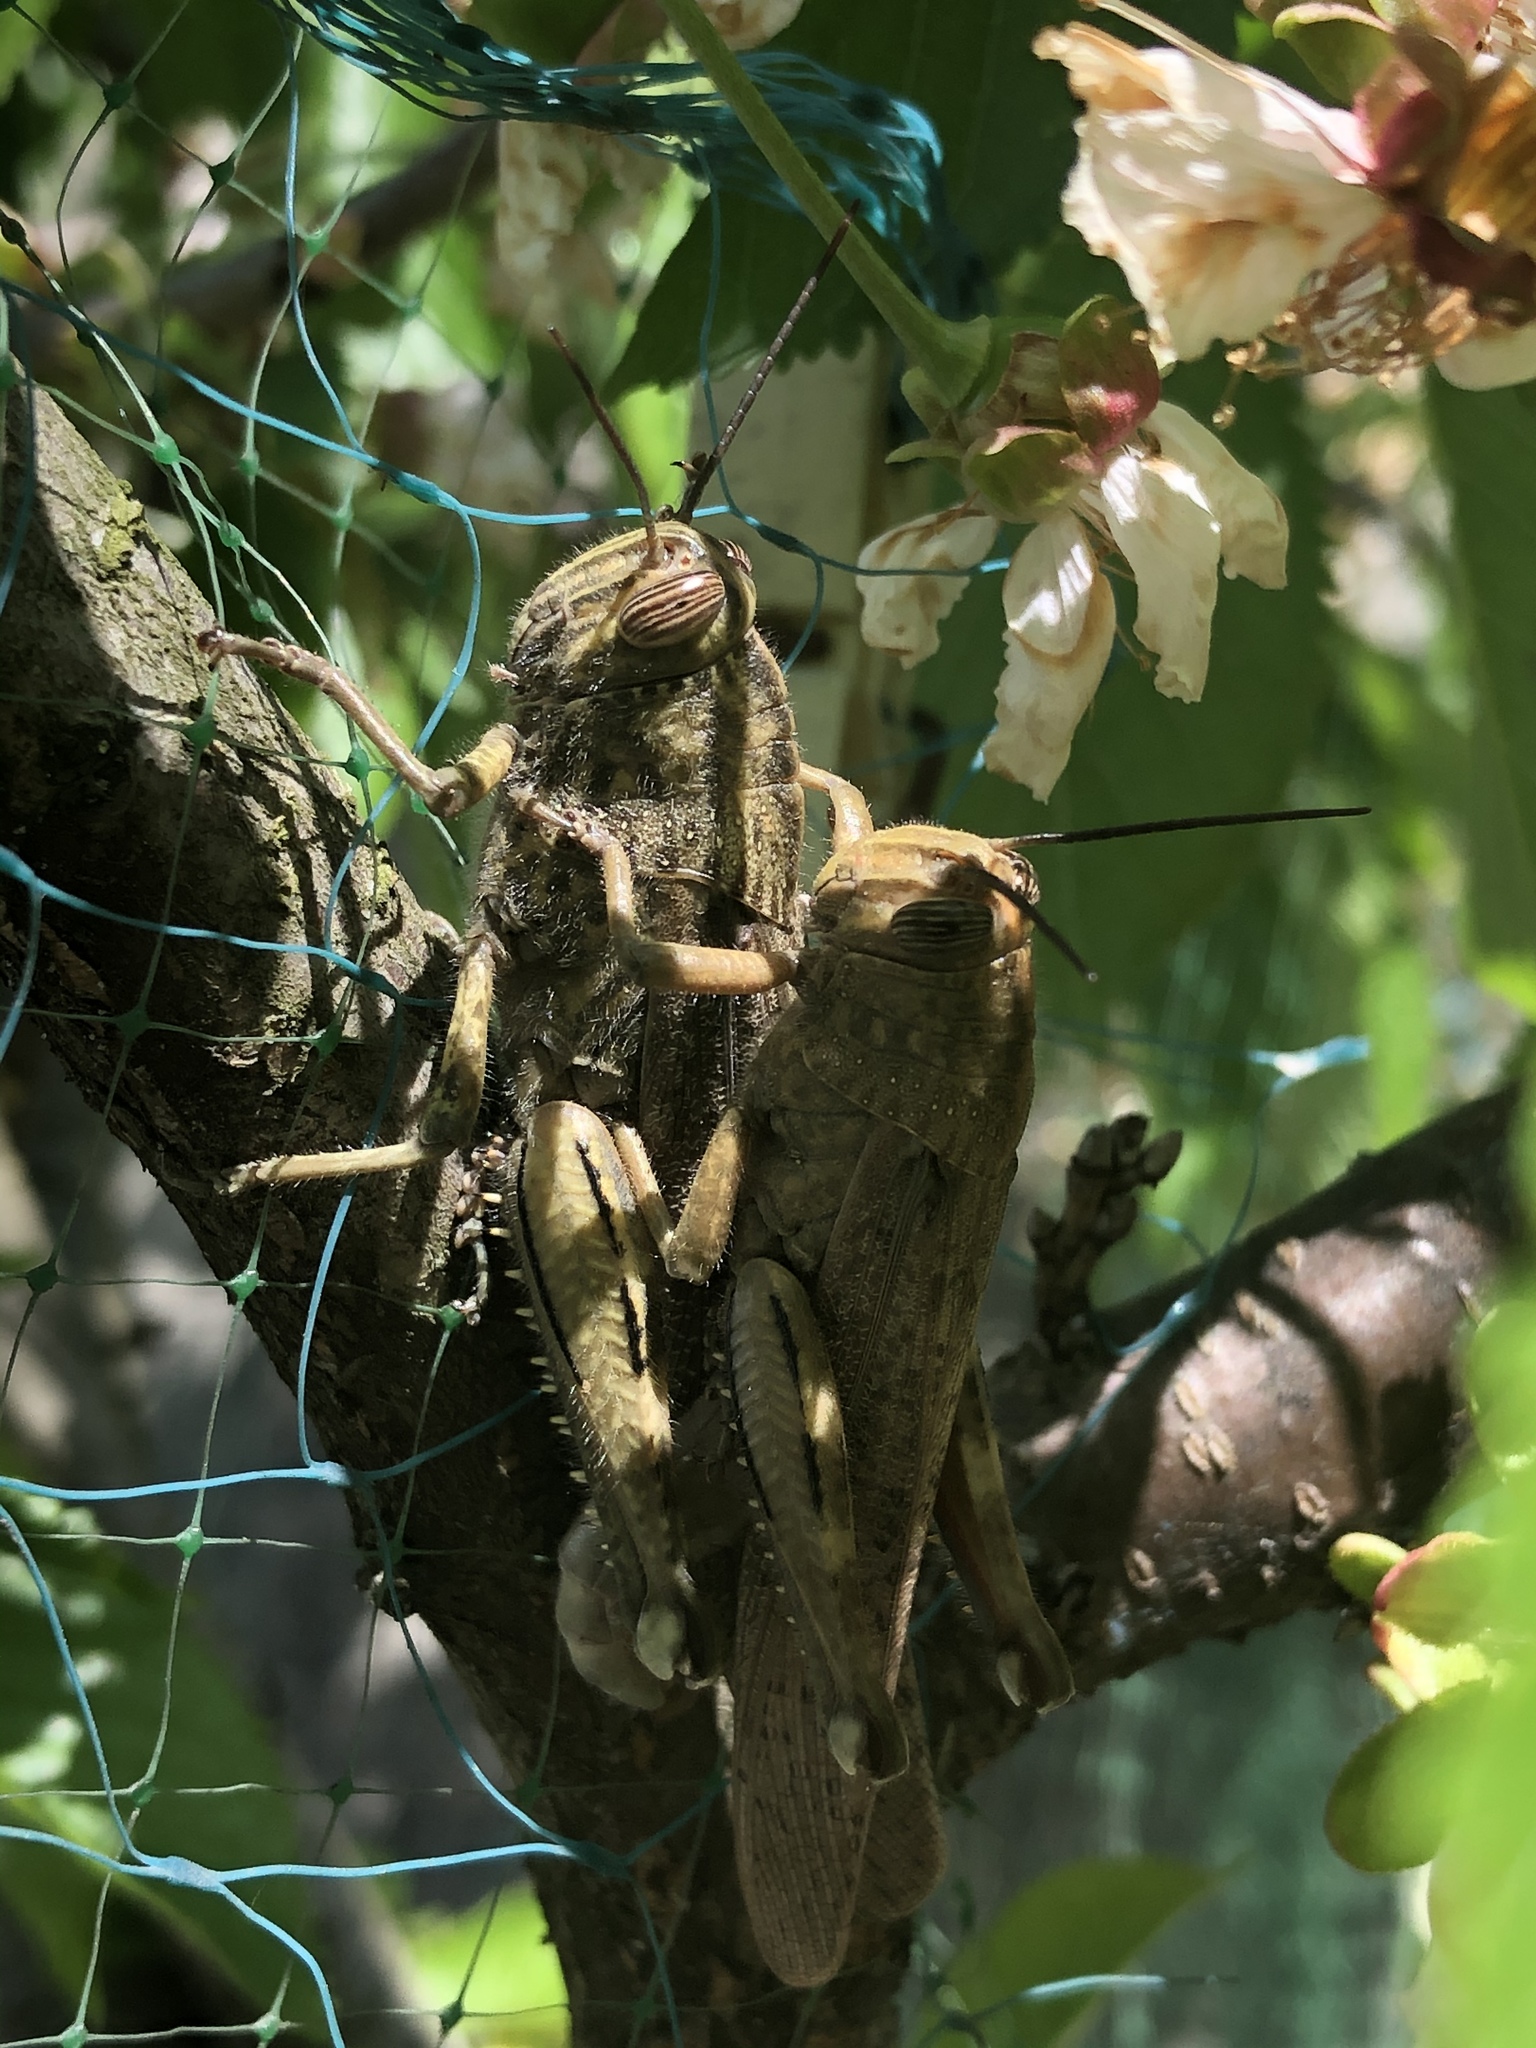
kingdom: Animalia
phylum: Arthropoda
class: Insecta
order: Orthoptera
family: Acrididae
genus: Anacridium
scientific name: Anacridium aegyptium
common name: Egyptian grasshopper
